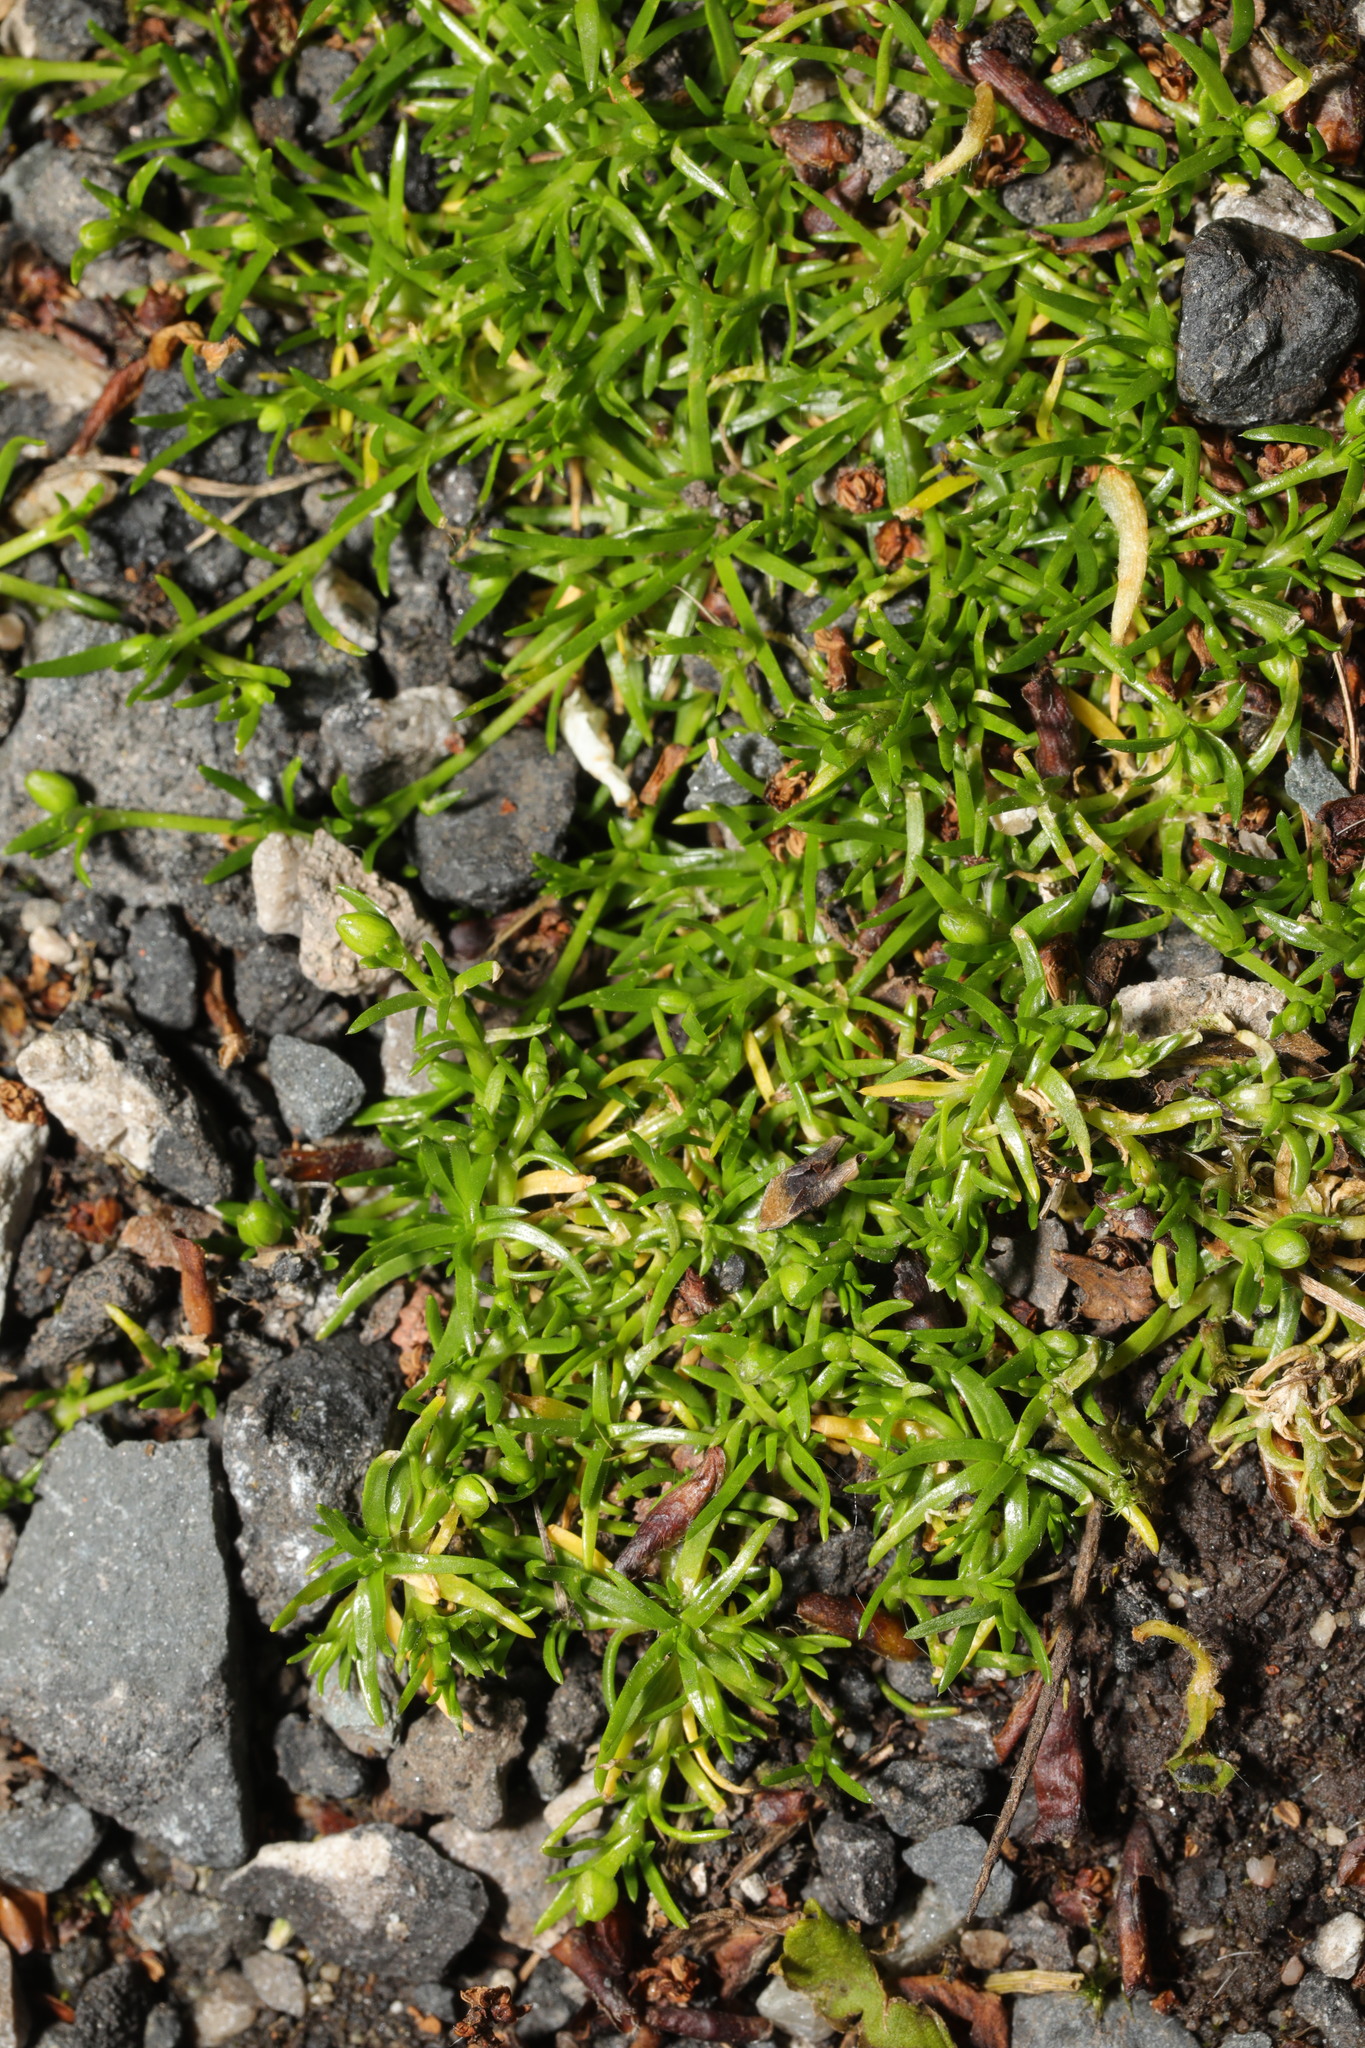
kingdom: Plantae
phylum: Tracheophyta
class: Magnoliopsida
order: Caryophyllales
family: Caryophyllaceae
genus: Sagina
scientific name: Sagina procumbens
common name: Procumbent pearlwort
